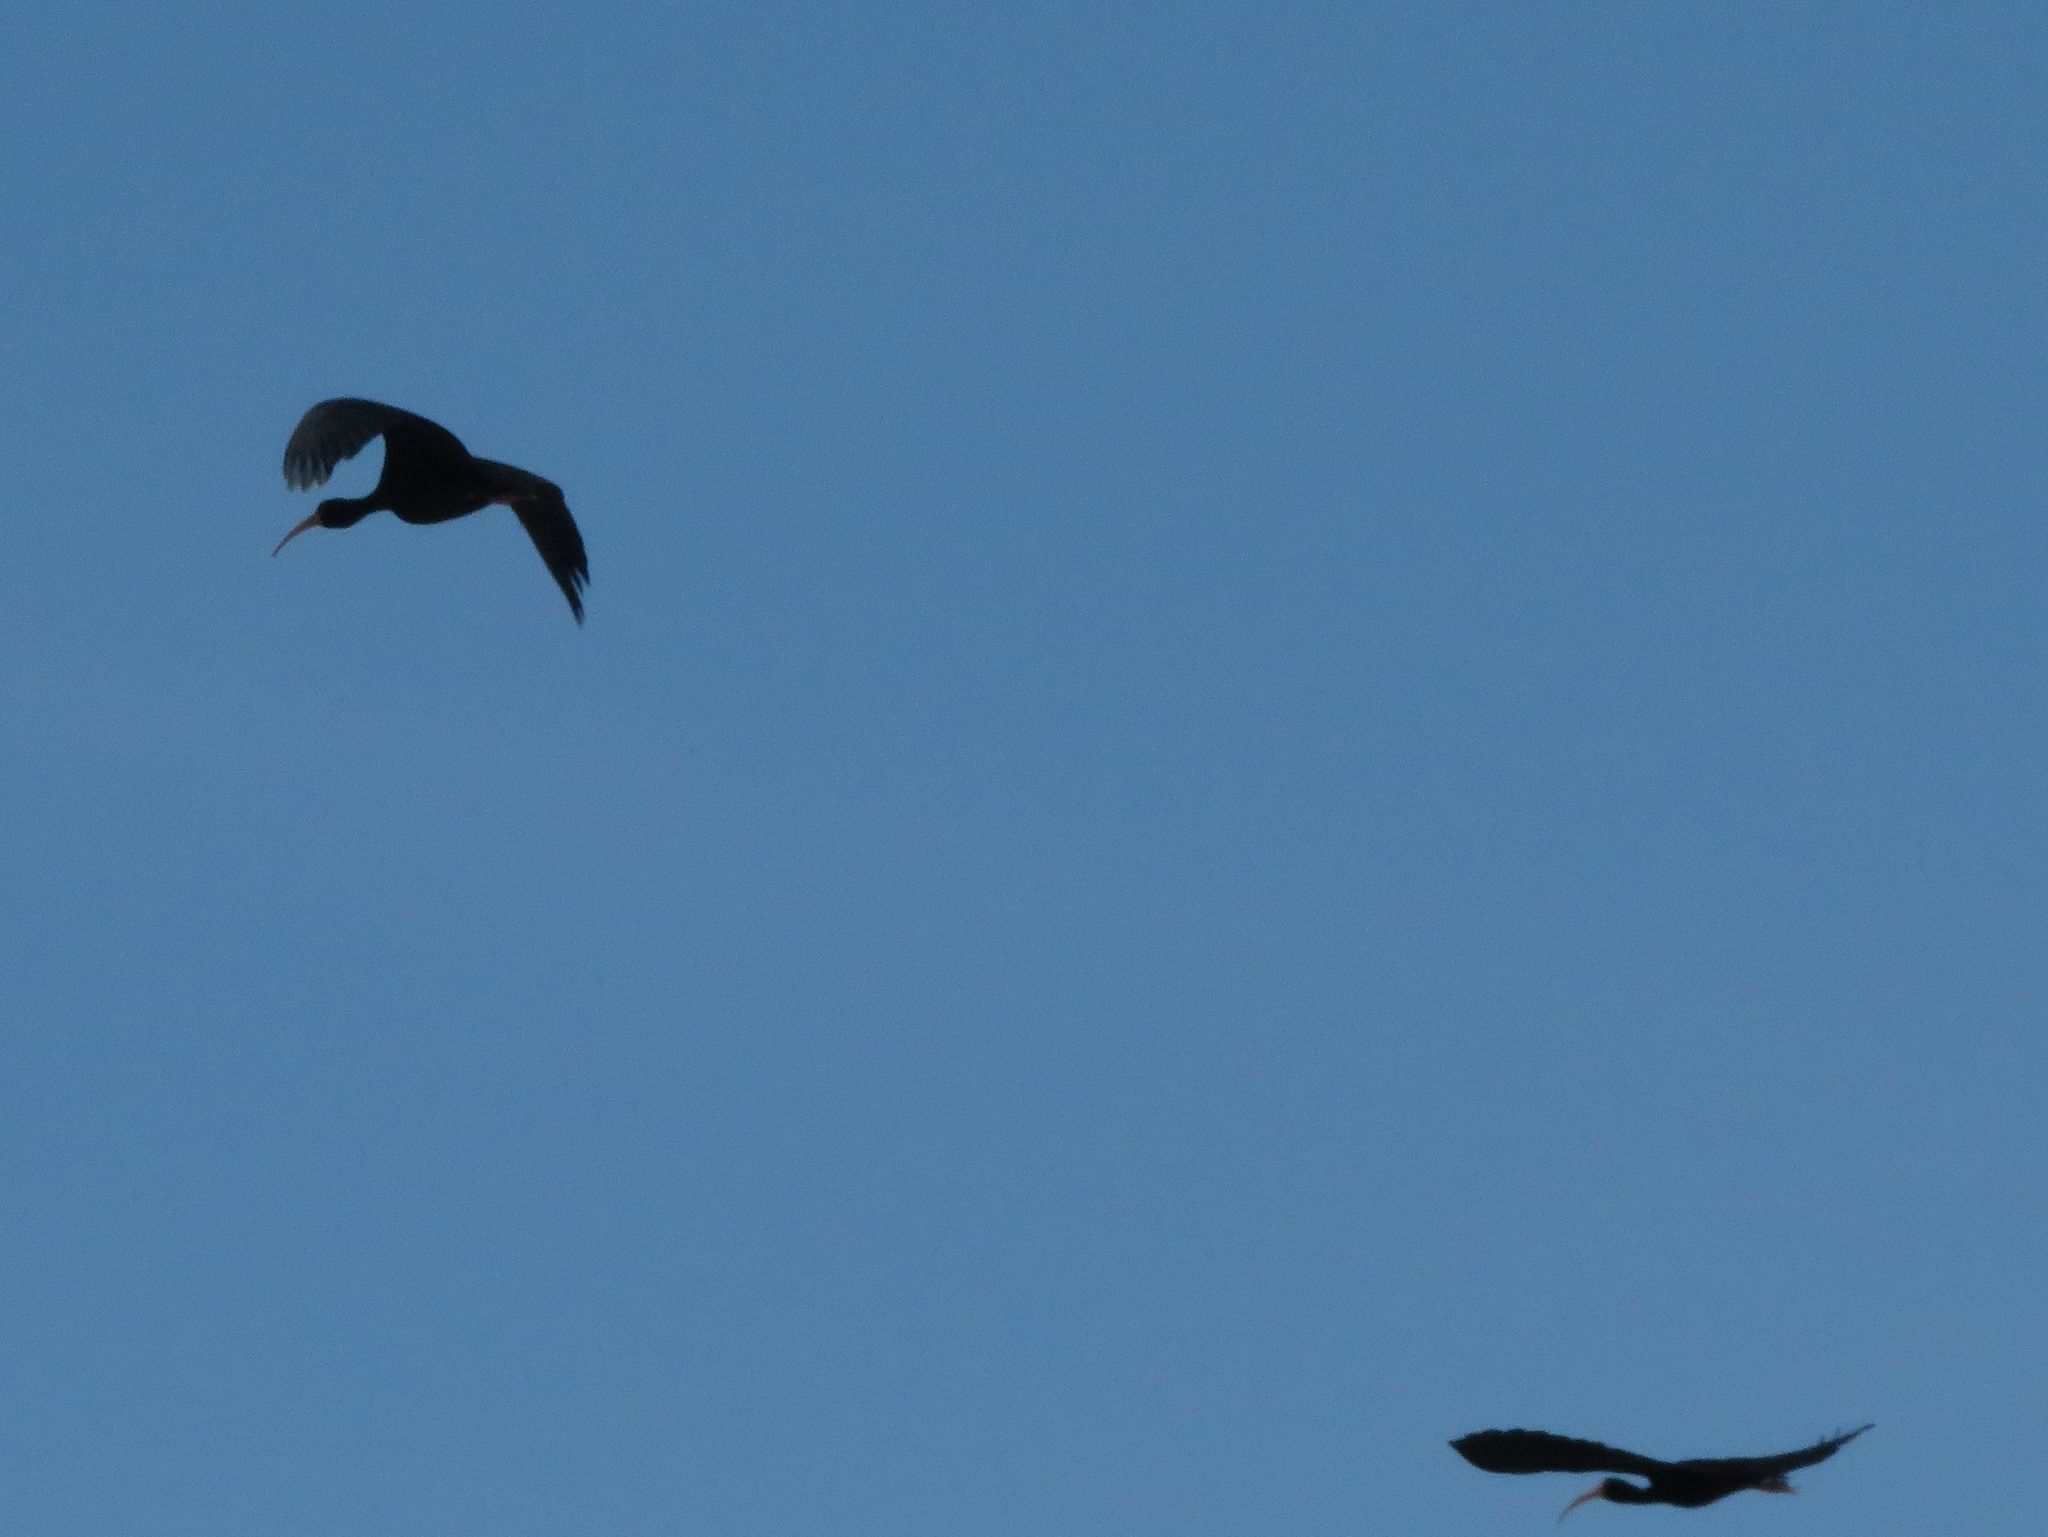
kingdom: Animalia
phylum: Chordata
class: Aves
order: Pelecaniformes
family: Threskiornithidae
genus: Phimosus
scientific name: Phimosus infuscatus
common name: Bare-faced ibis
